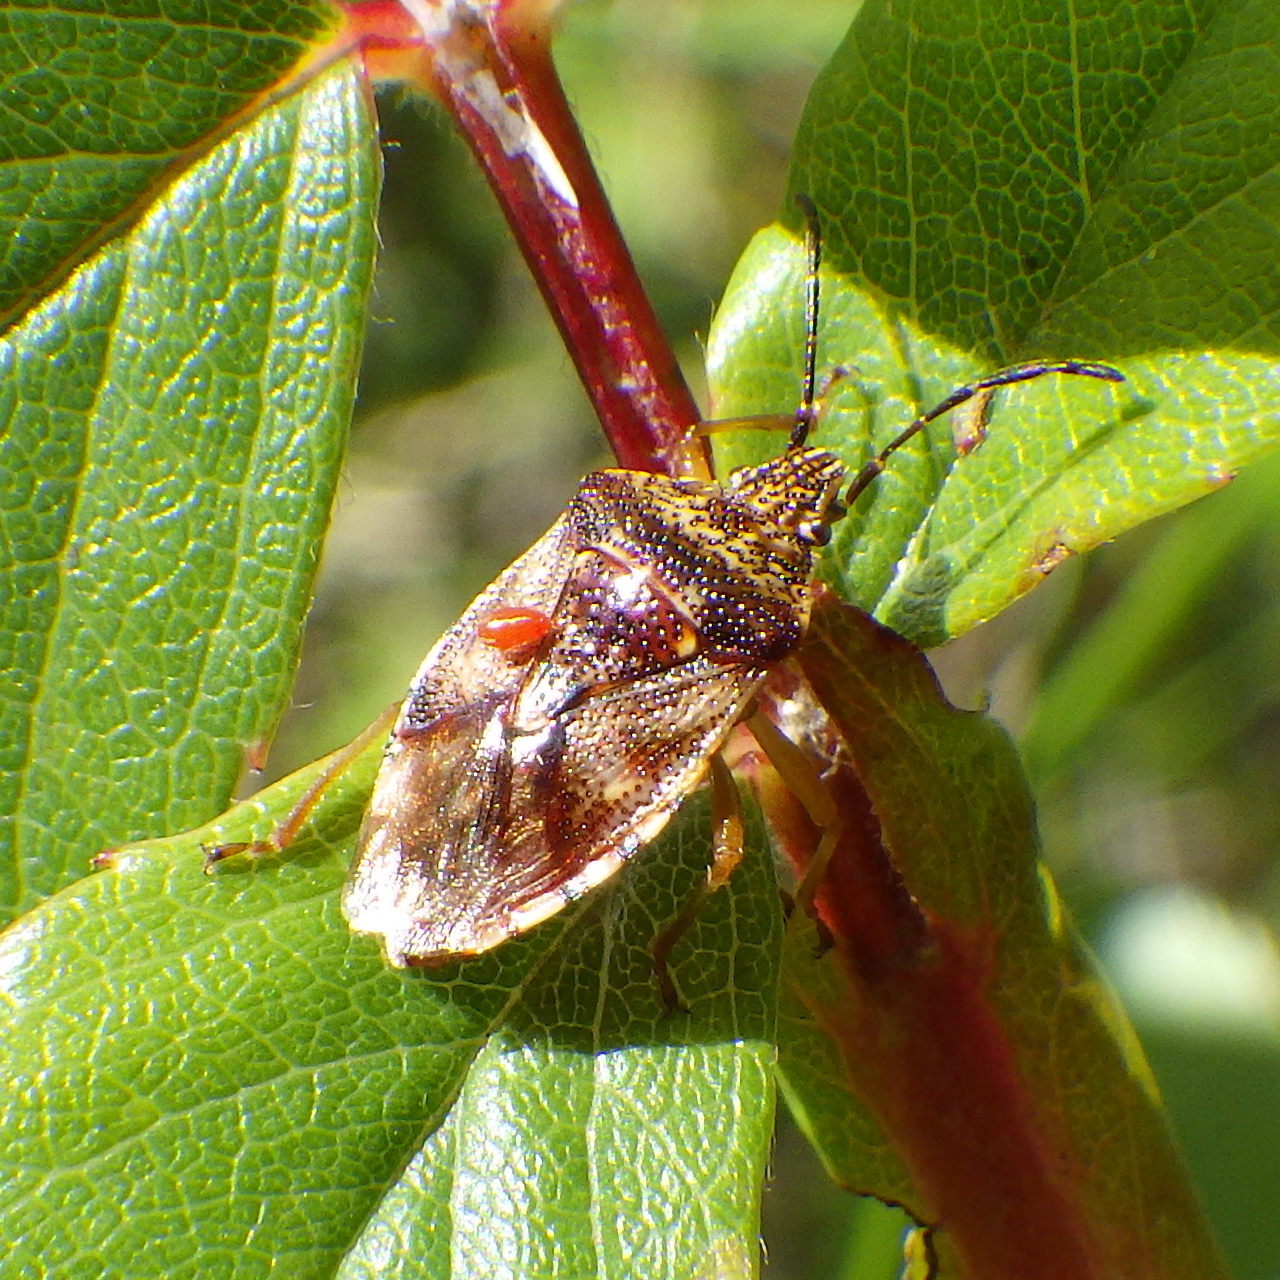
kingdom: Animalia
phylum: Arthropoda
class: Insecta
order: Hemiptera
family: Acanthosomatidae
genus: Elasmucha
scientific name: Elasmucha lateralis
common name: Shield bug
